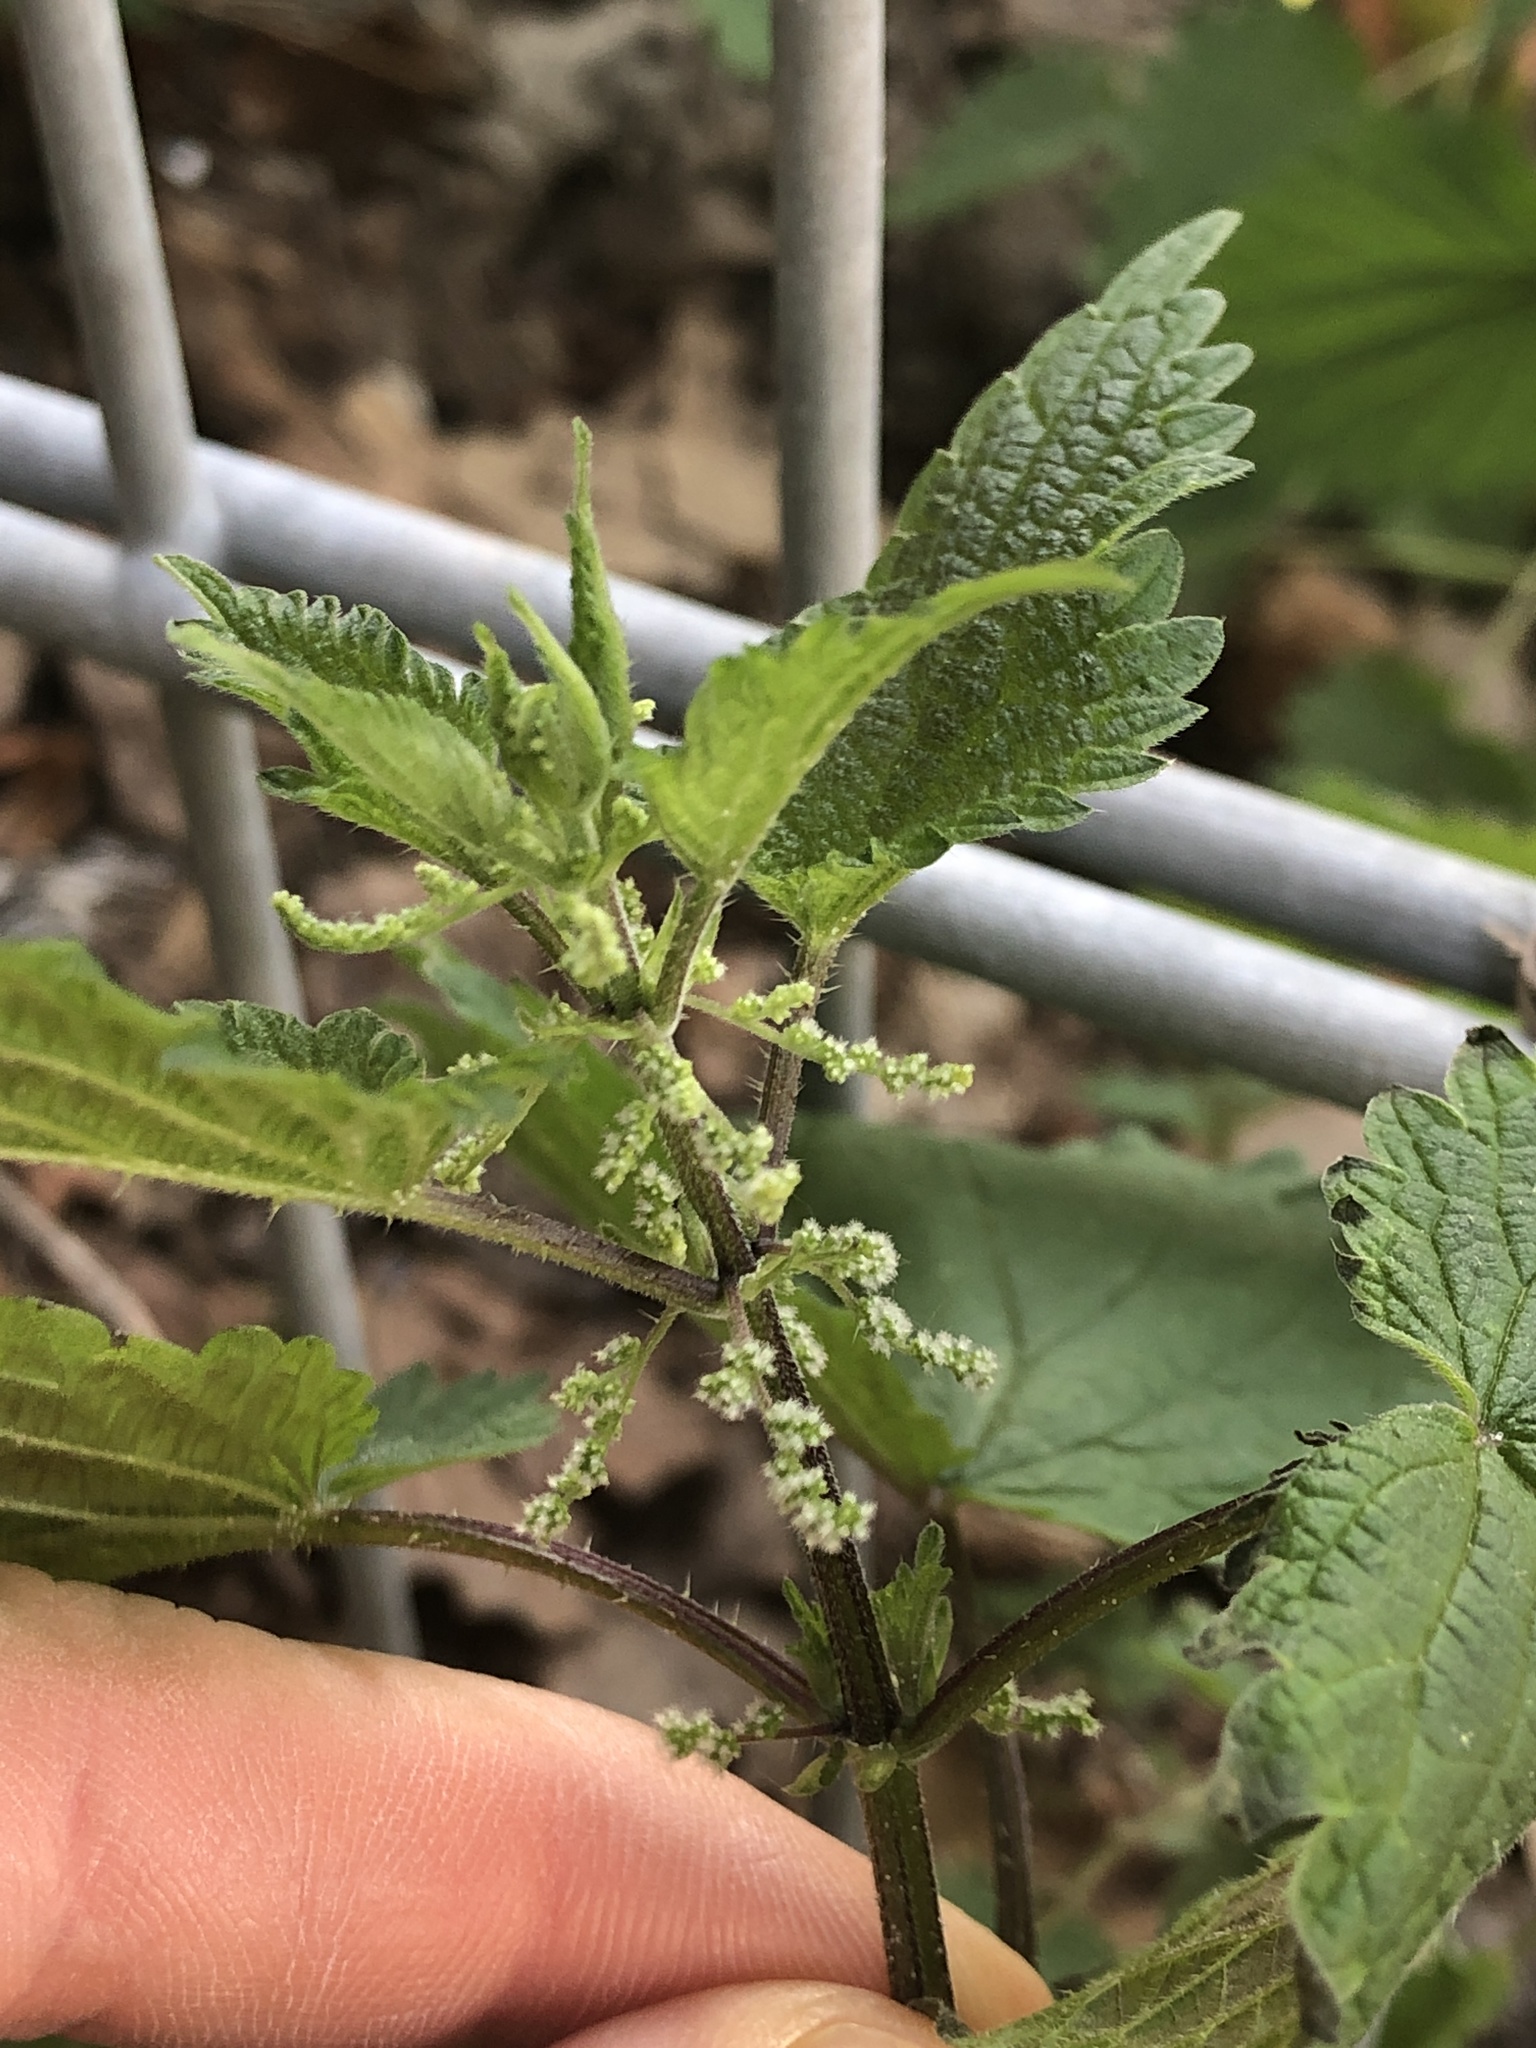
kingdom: Plantae
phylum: Tracheophyta
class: Magnoliopsida
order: Rosales
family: Urticaceae
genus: Urtica
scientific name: Urtica dioica
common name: Common nettle
